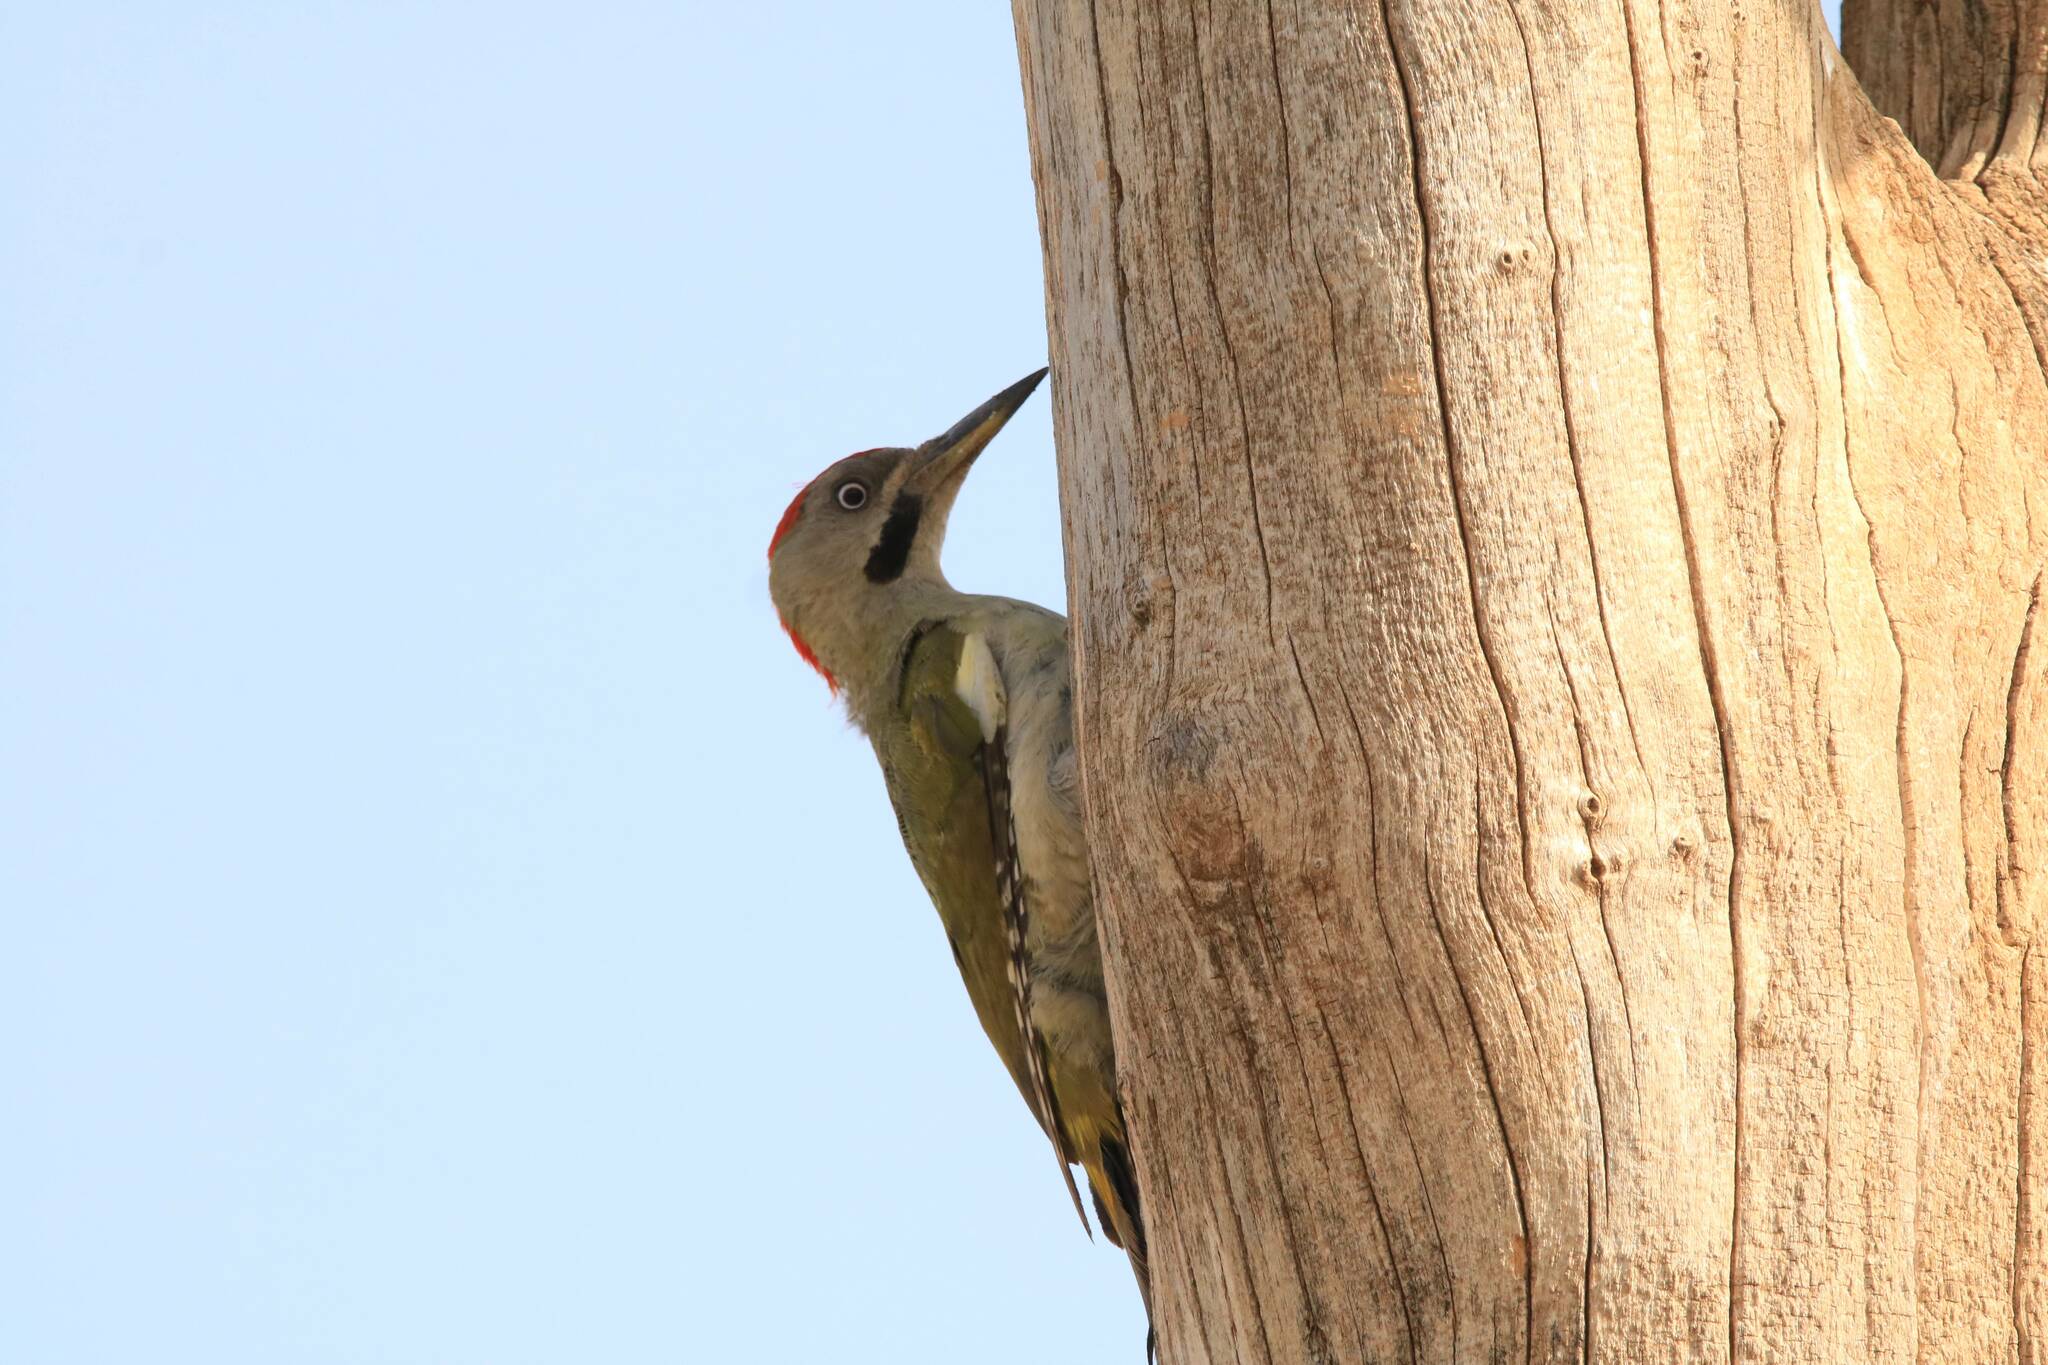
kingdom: Animalia
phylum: Chordata
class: Aves
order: Piciformes
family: Picidae
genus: Picus
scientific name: Picus vaillantii
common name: Levaillant's woodpecker
